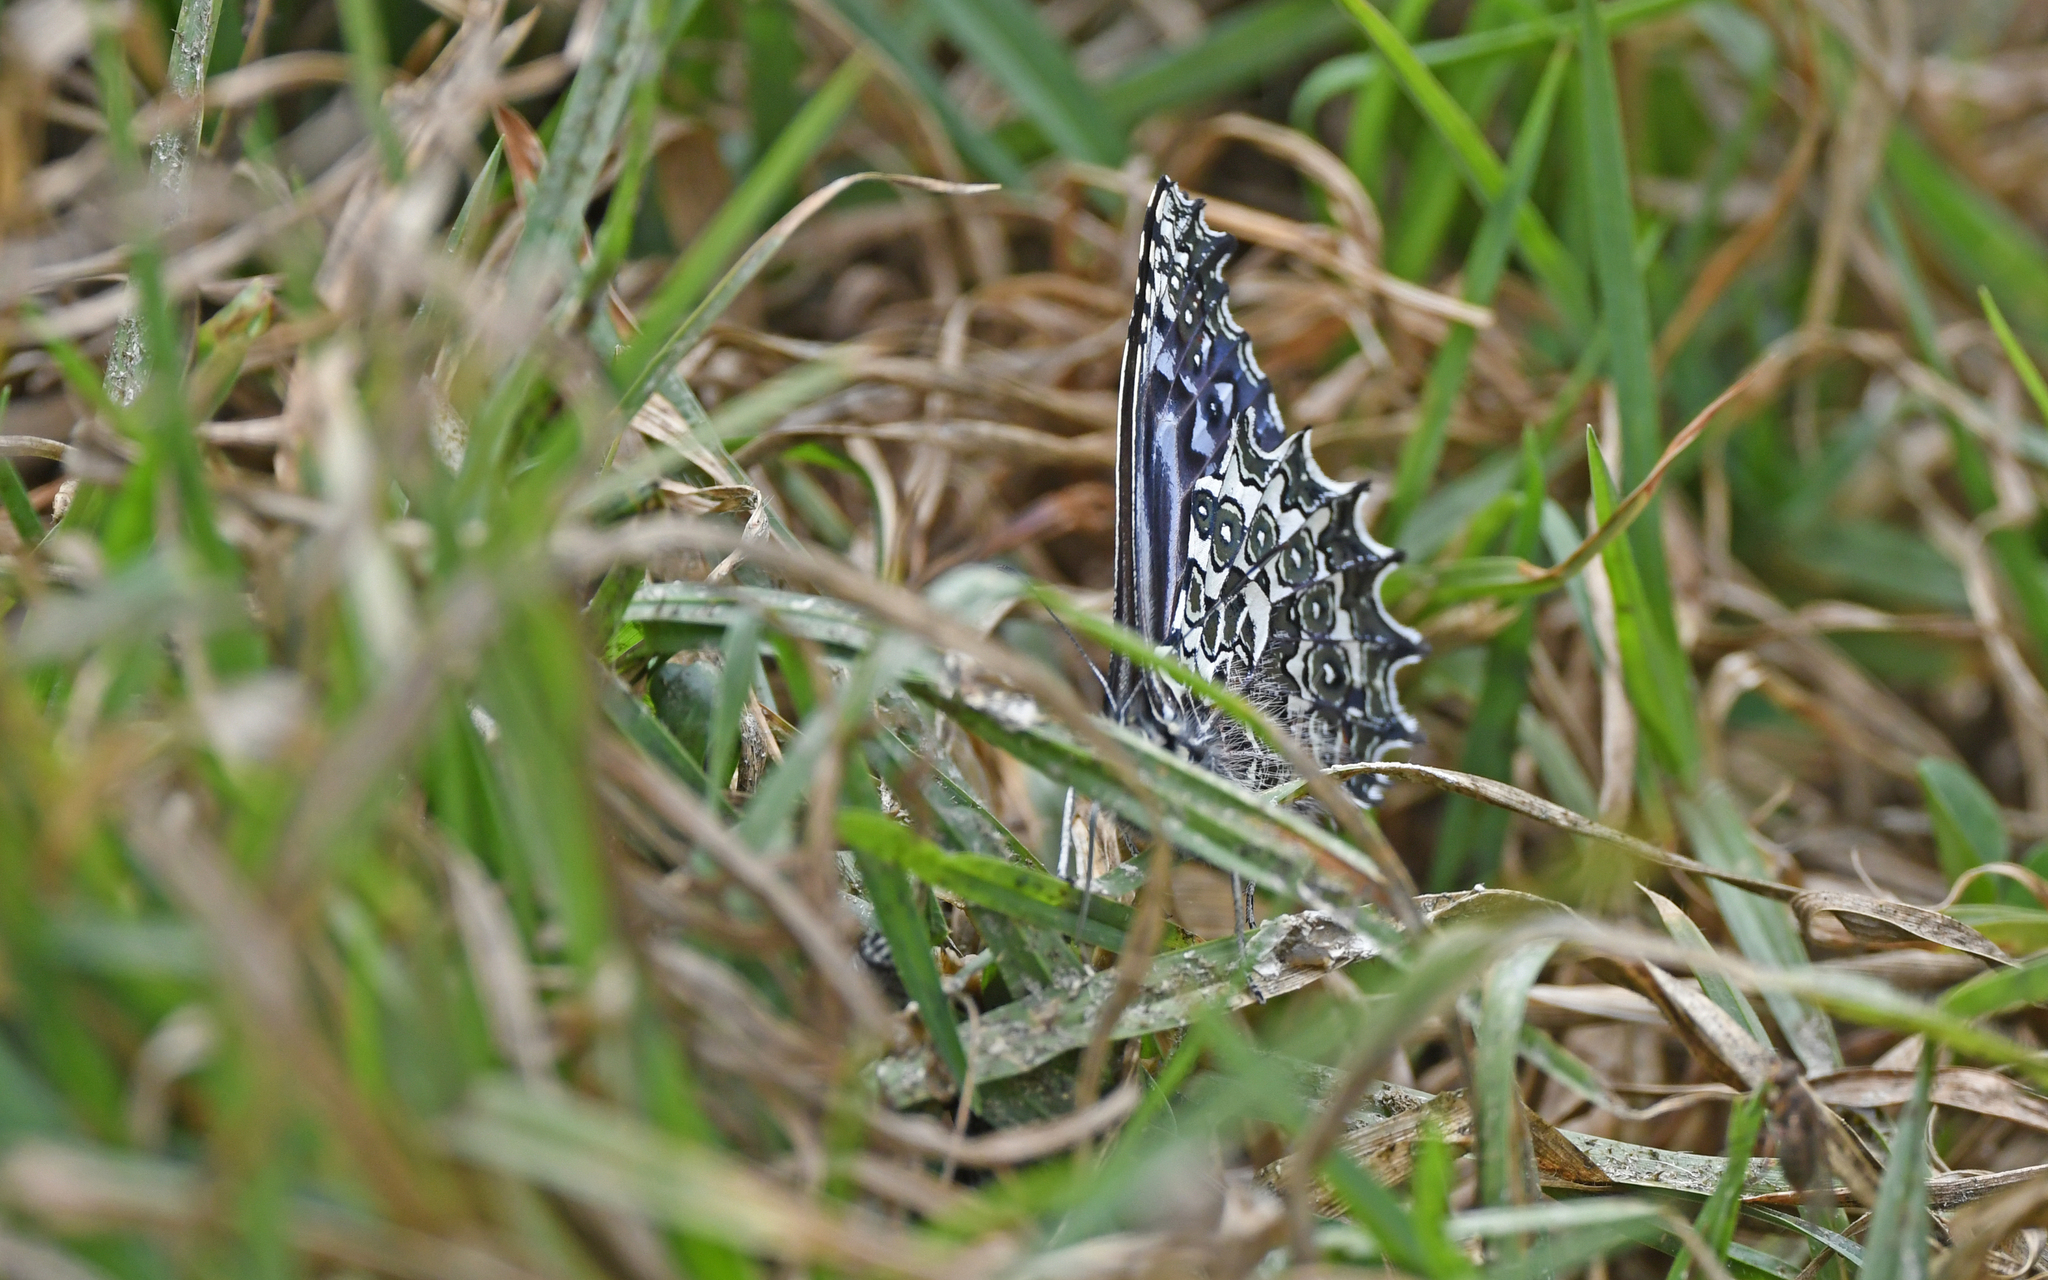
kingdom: Animalia
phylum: Arthropoda
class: Insecta
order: Lepidoptera
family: Nymphalidae
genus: Junea
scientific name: Junea doraete
